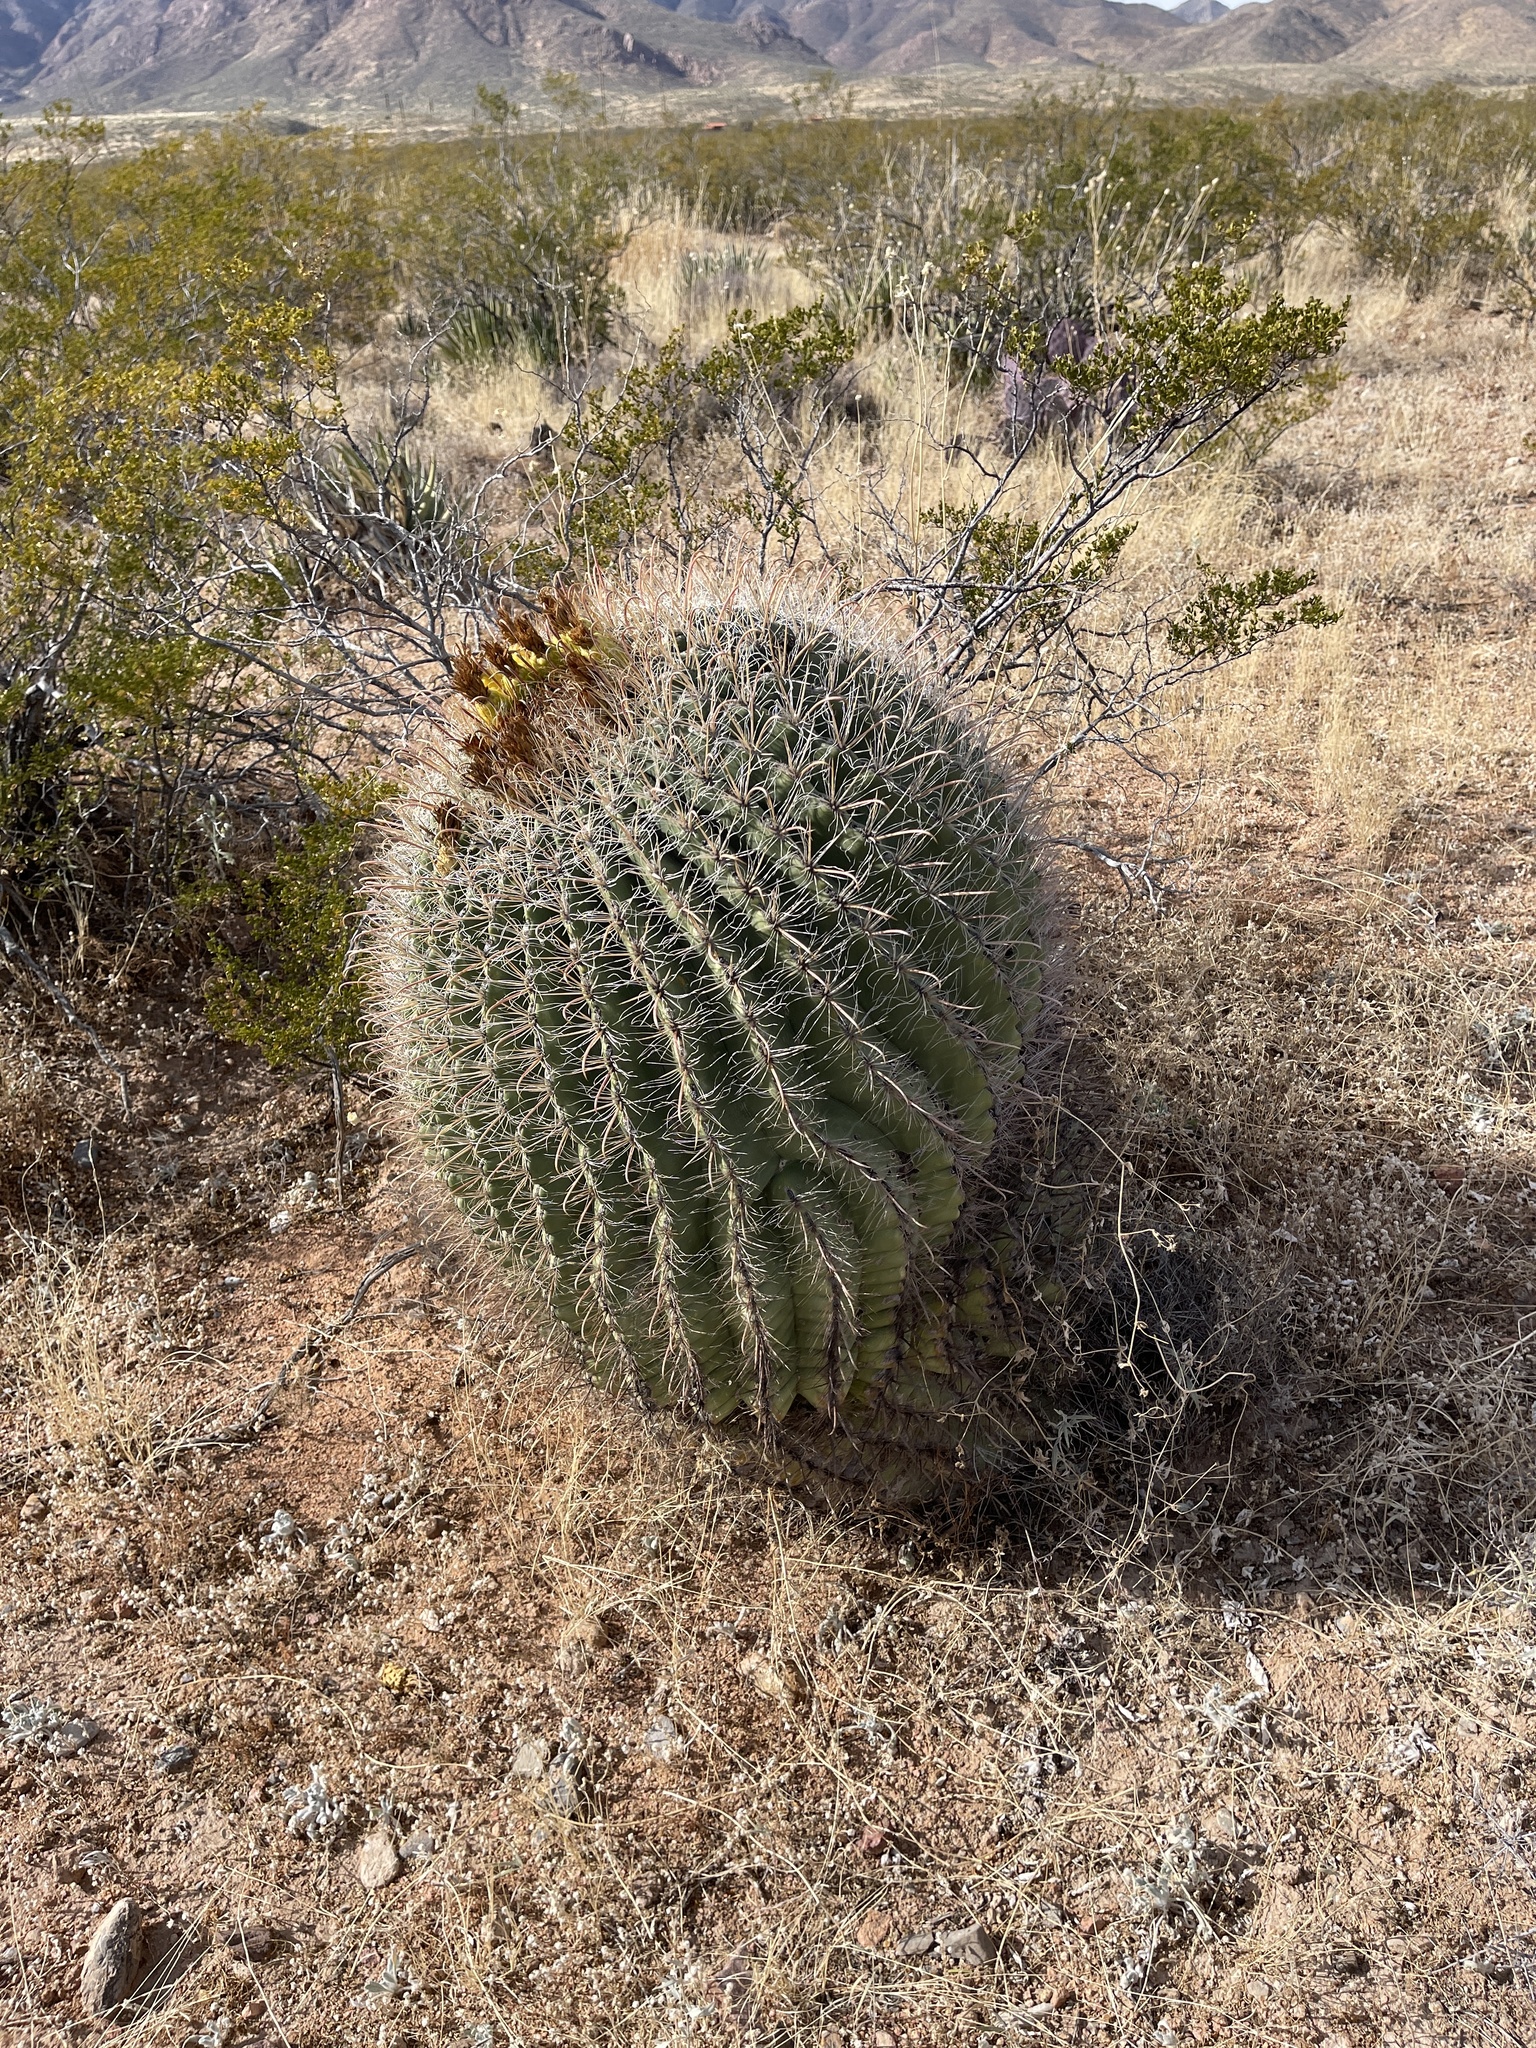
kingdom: Plantae
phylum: Tracheophyta
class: Magnoliopsida
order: Caryophyllales
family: Cactaceae
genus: Ferocactus
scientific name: Ferocactus wislizeni
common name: Candy barrel cactus
